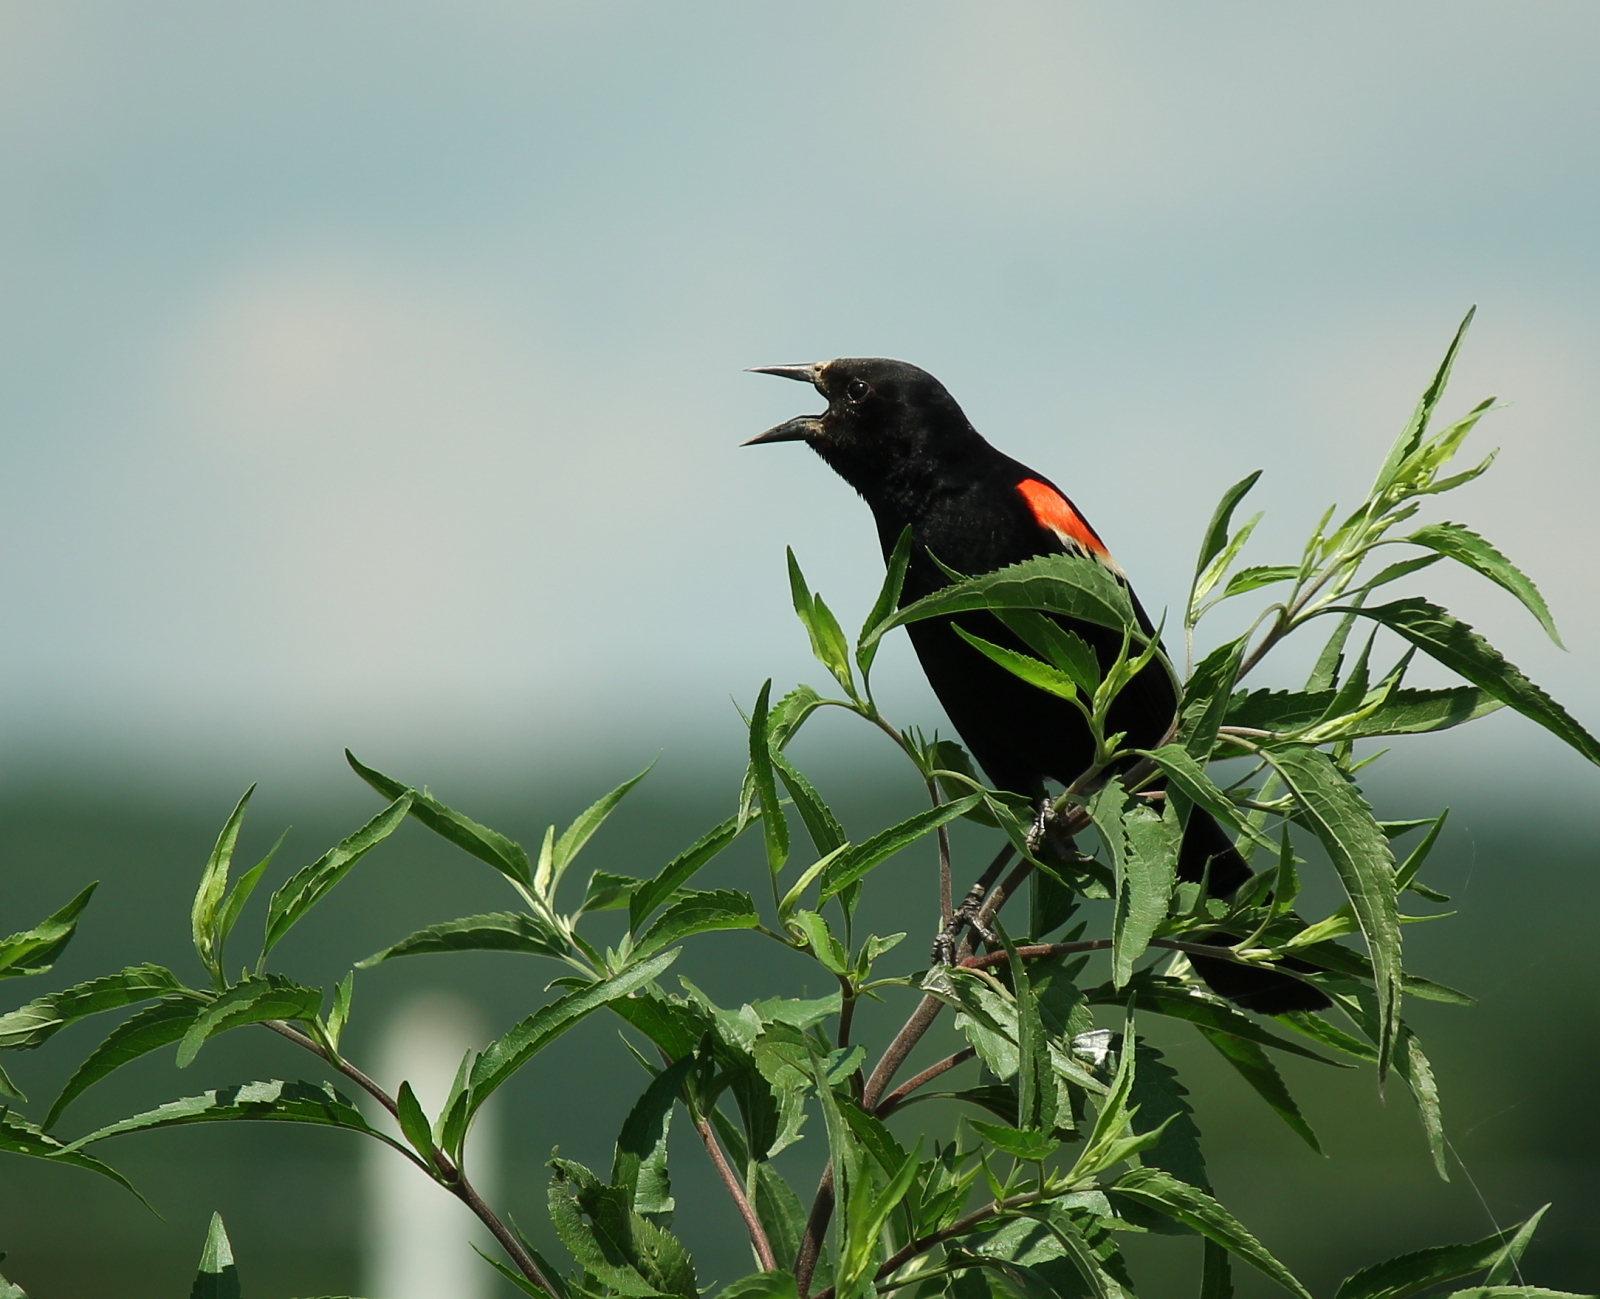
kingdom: Animalia
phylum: Chordata
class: Aves
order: Passeriformes
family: Icteridae
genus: Agelaius
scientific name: Agelaius phoeniceus
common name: Red-winged blackbird
